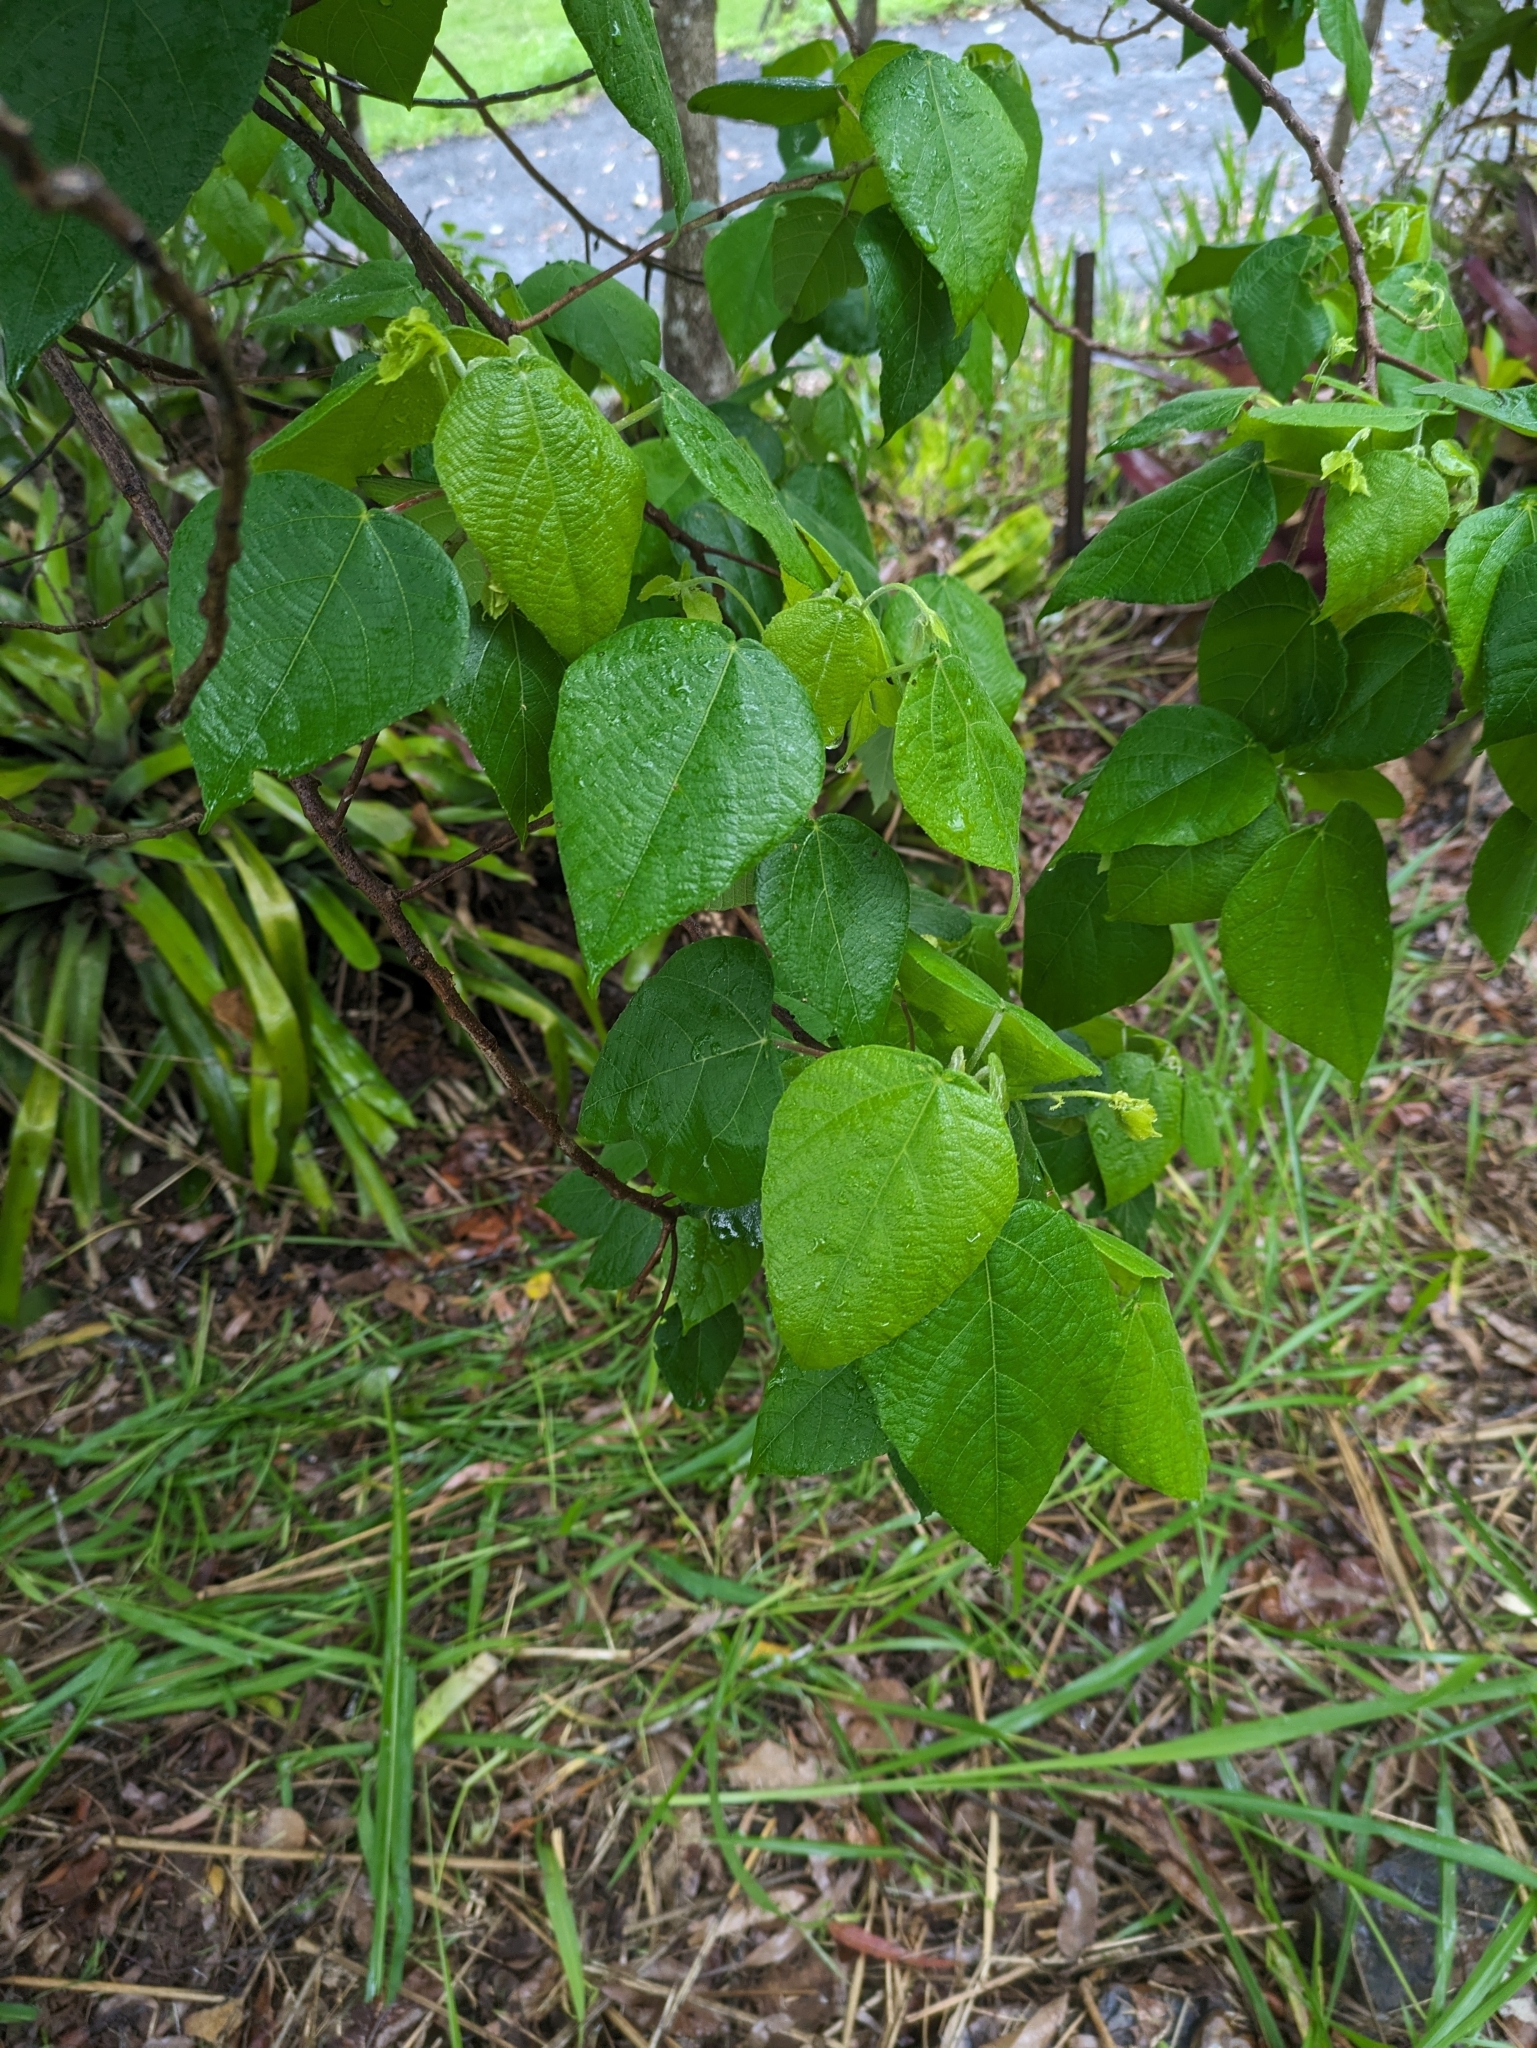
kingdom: Plantae
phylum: Tracheophyta
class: Magnoliopsida
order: Malpighiales
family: Euphorbiaceae
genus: Macaranga
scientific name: Macaranga involucrata
